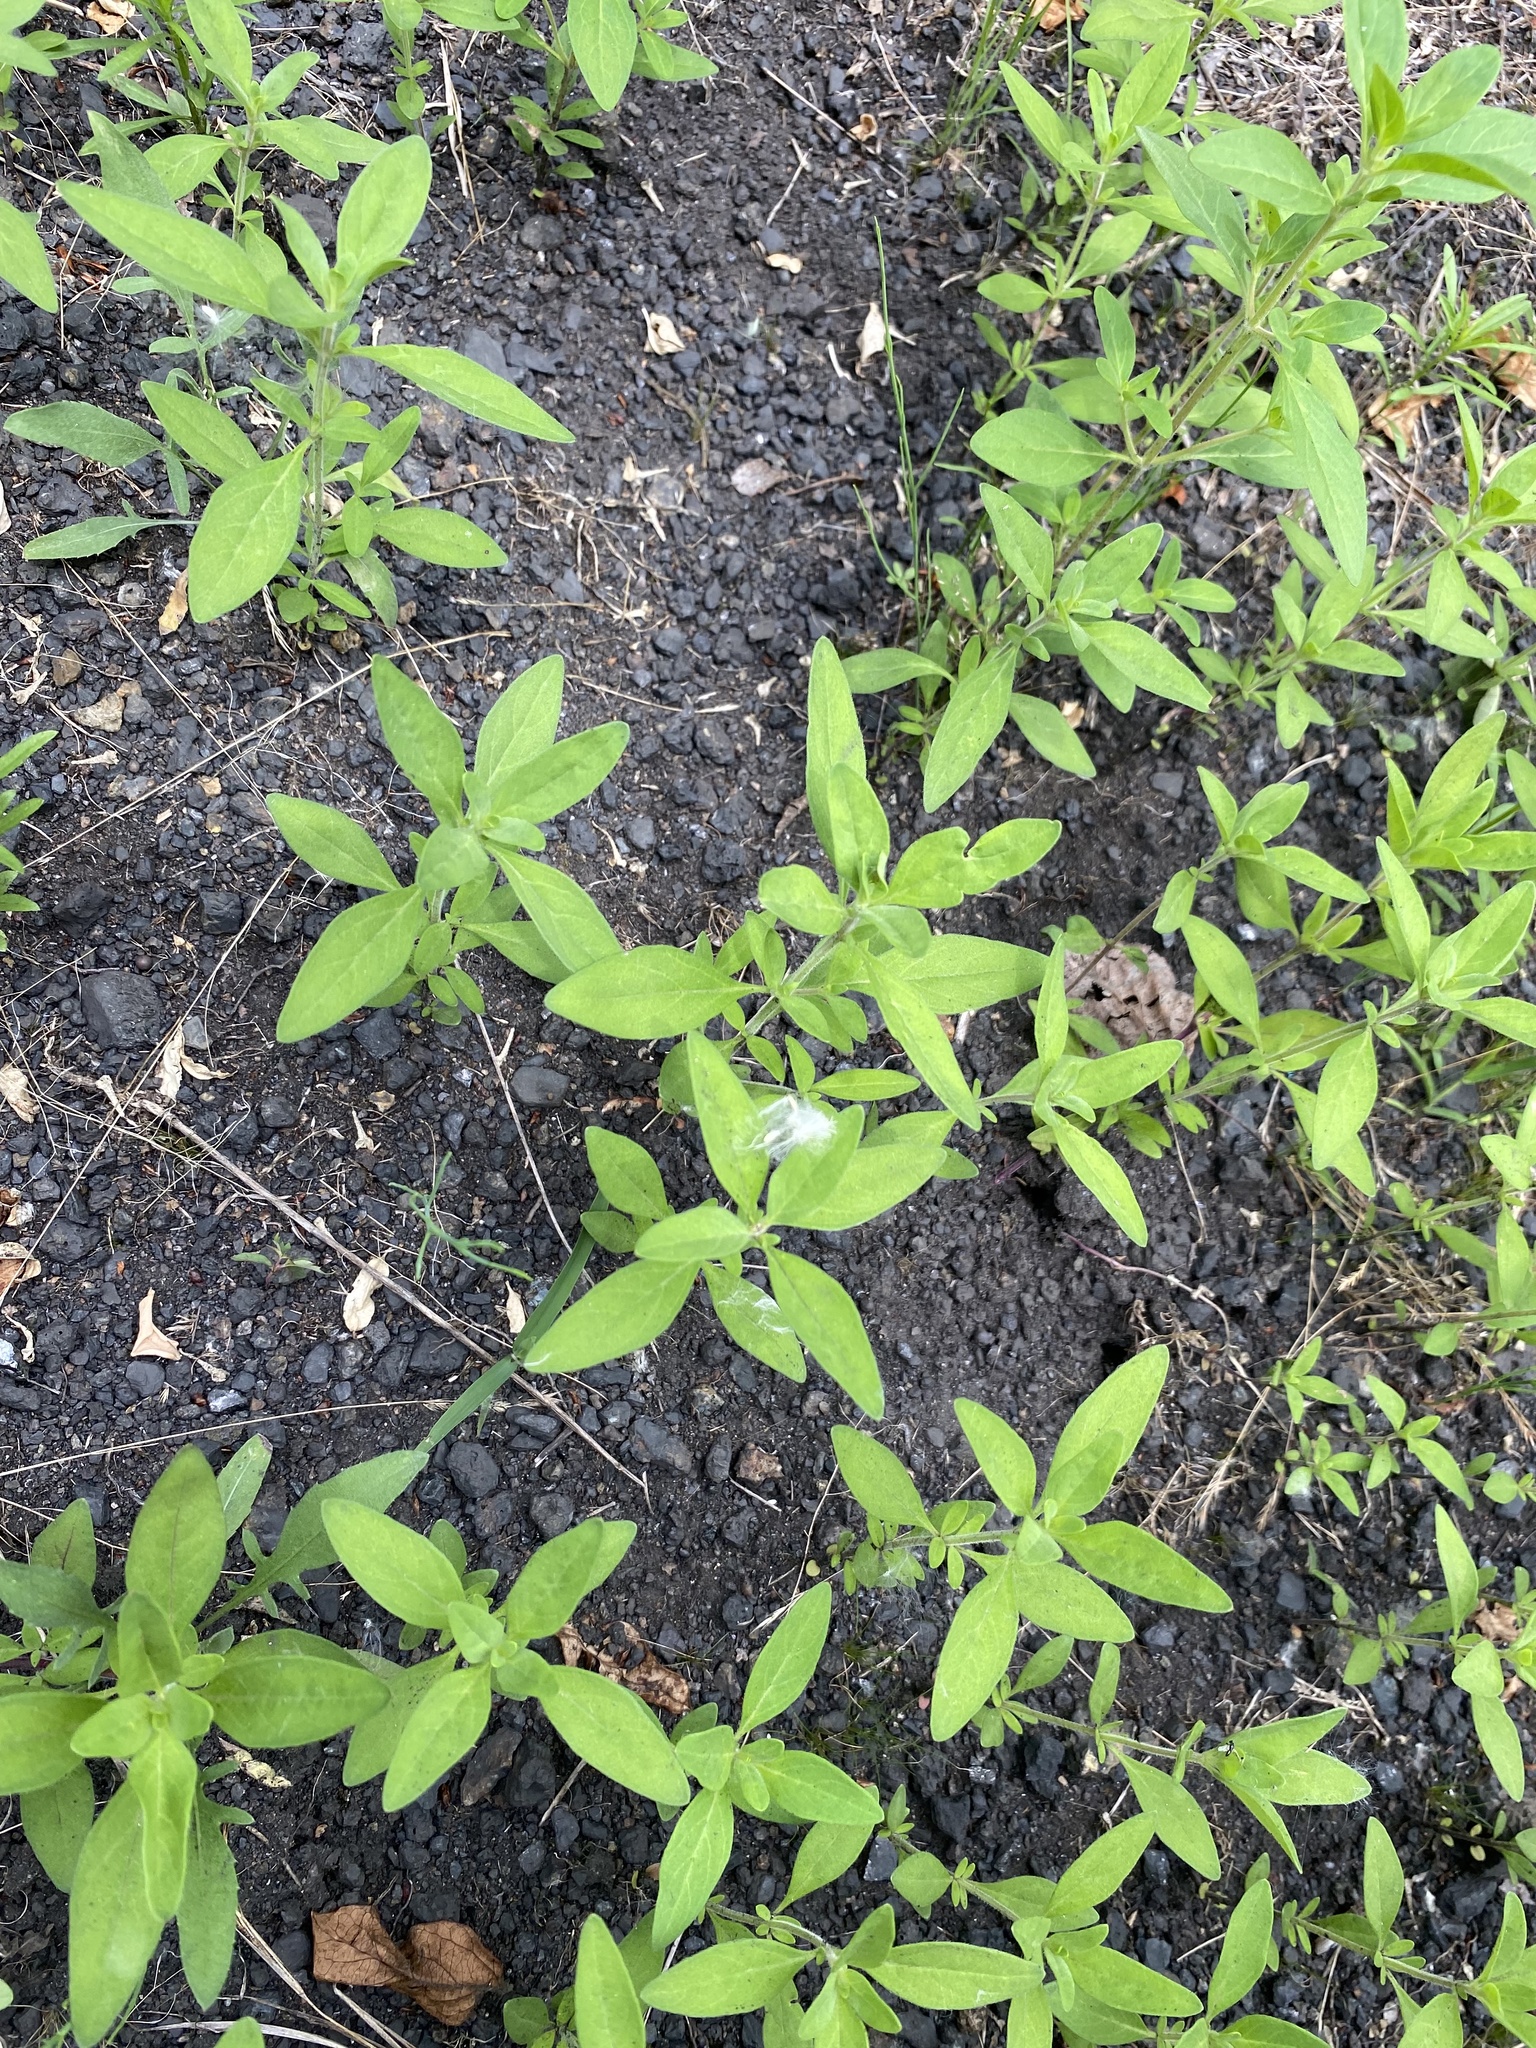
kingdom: Plantae
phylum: Tracheophyta
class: Magnoliopsida
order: Lamiales
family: Lamiaceae
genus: Trichostema
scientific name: Trichostema dichotomum
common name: Bastard pennyroyal
